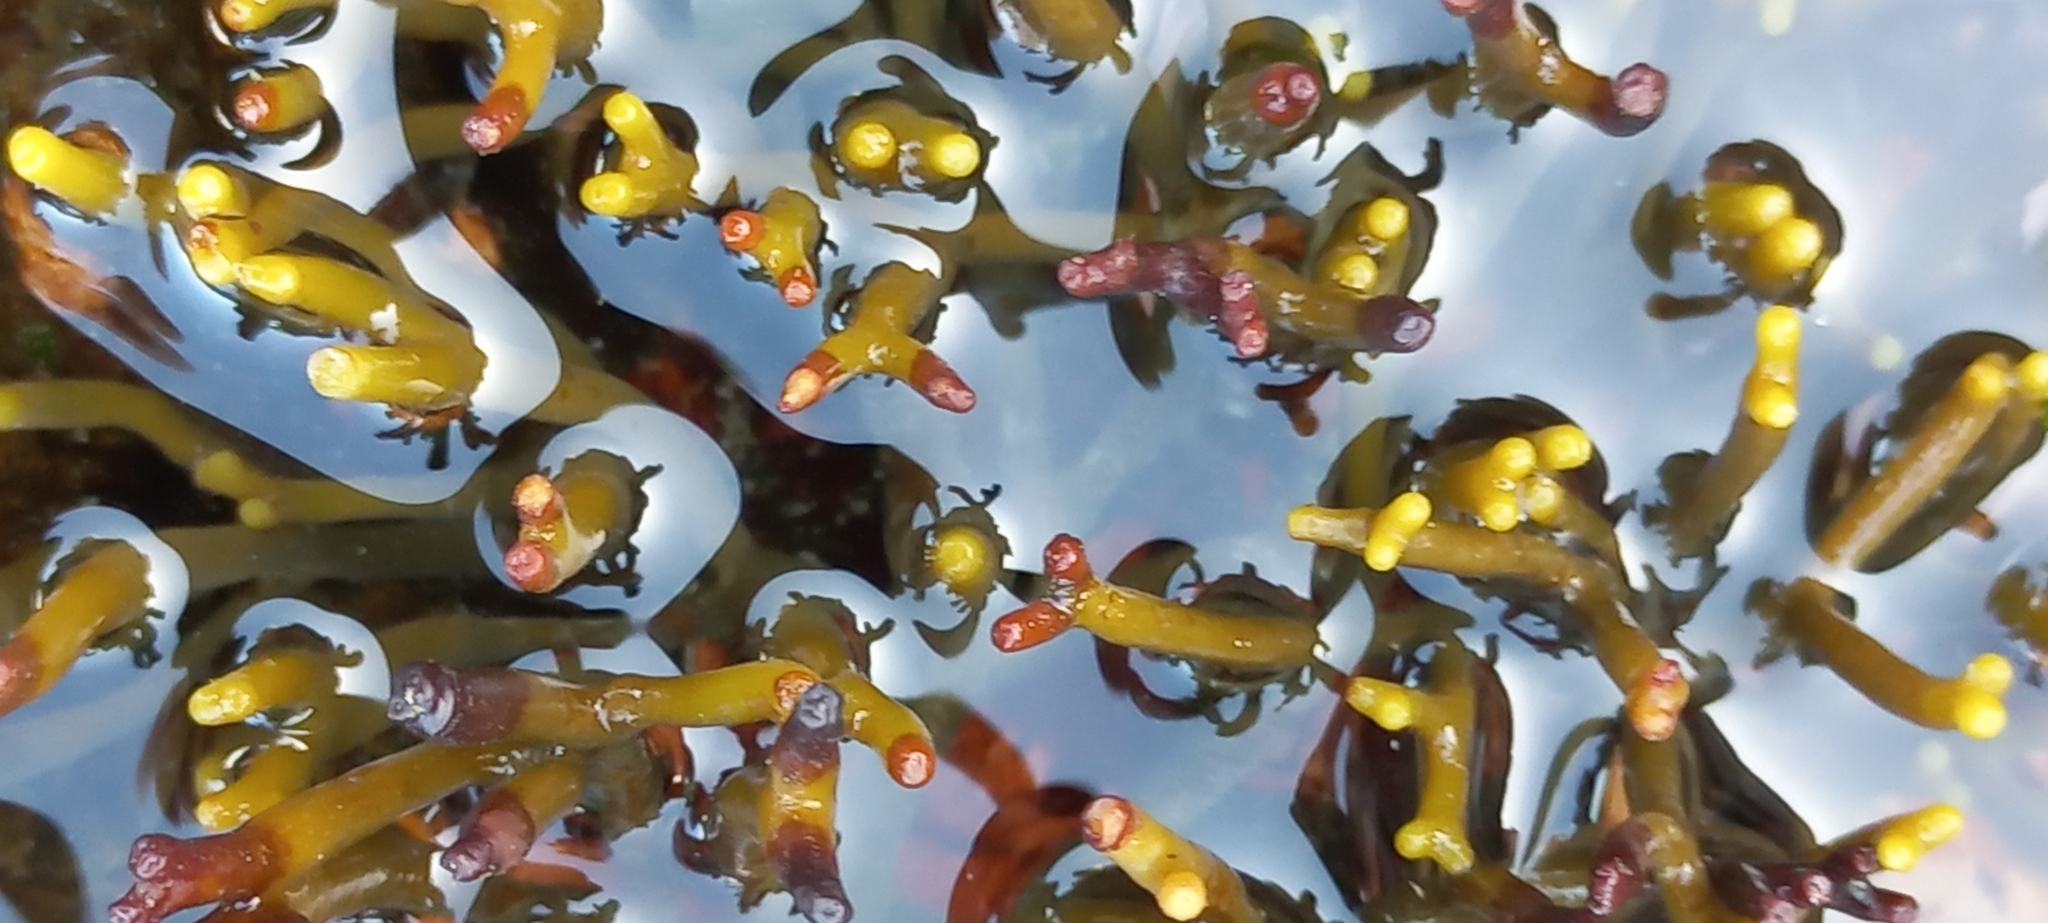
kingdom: Chromista
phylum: Ochrophyta
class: Phaeophyceae
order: Fucales
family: Bifurcariopsidaceae
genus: Bifurcariopsis
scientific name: Bifurcariopsis
